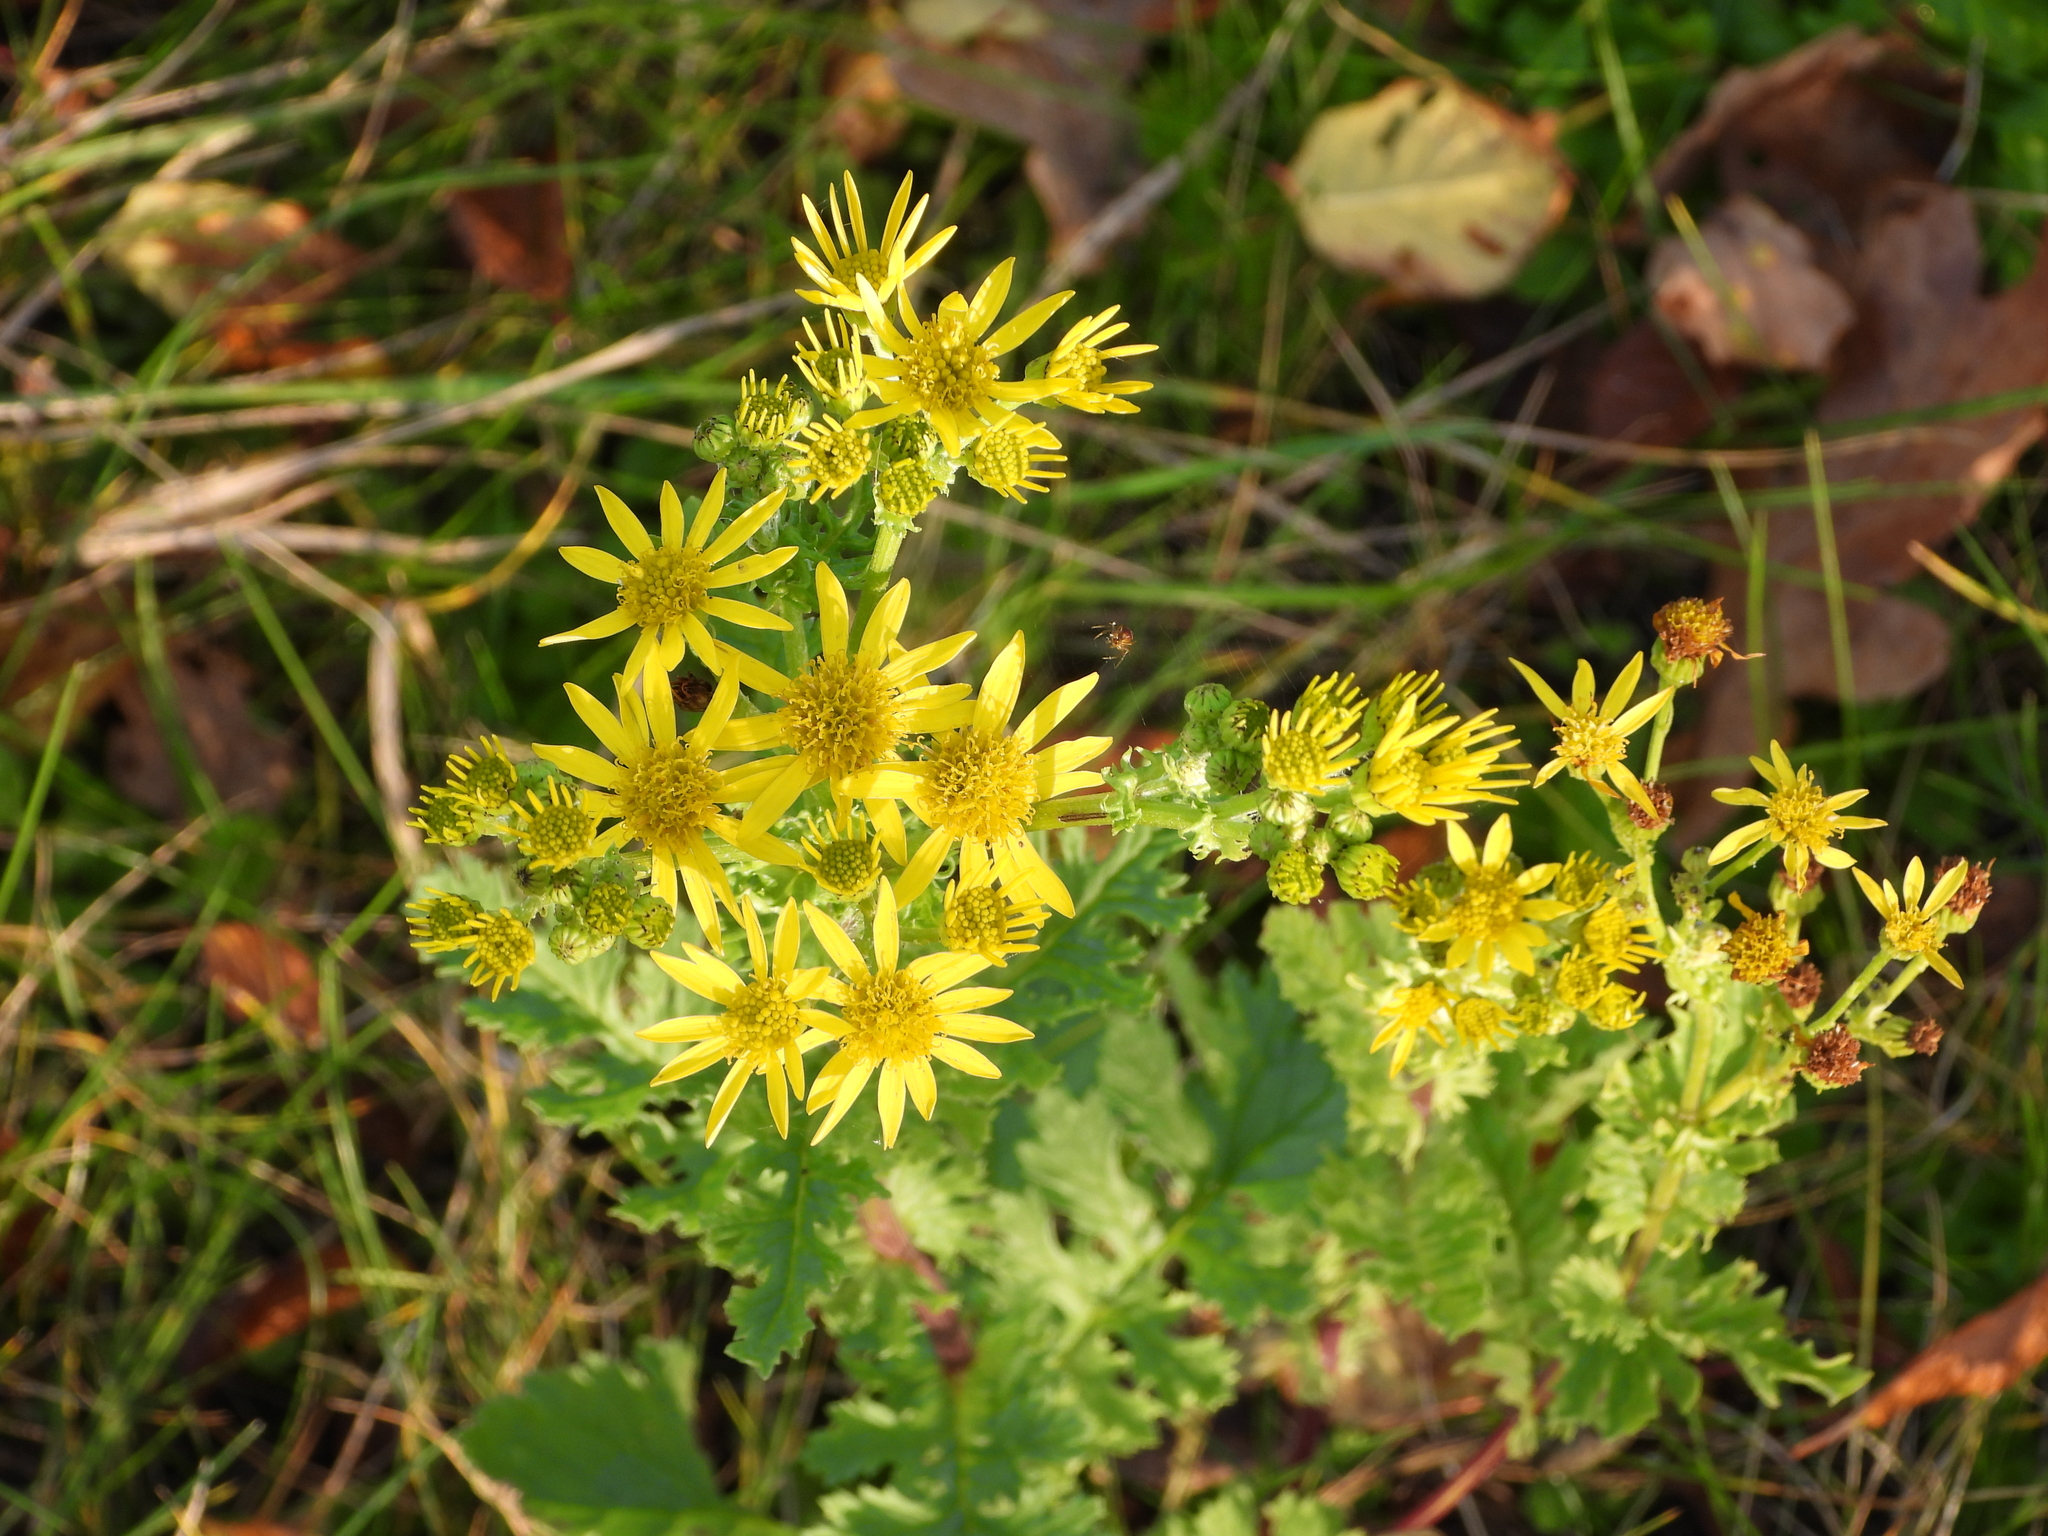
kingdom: Plantae
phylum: Tracheophyta
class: Magnoliopsida
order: Asterales
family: Asteraceae
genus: Jacobaea
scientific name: Jacobaea vulgaris
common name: Stinking willie
